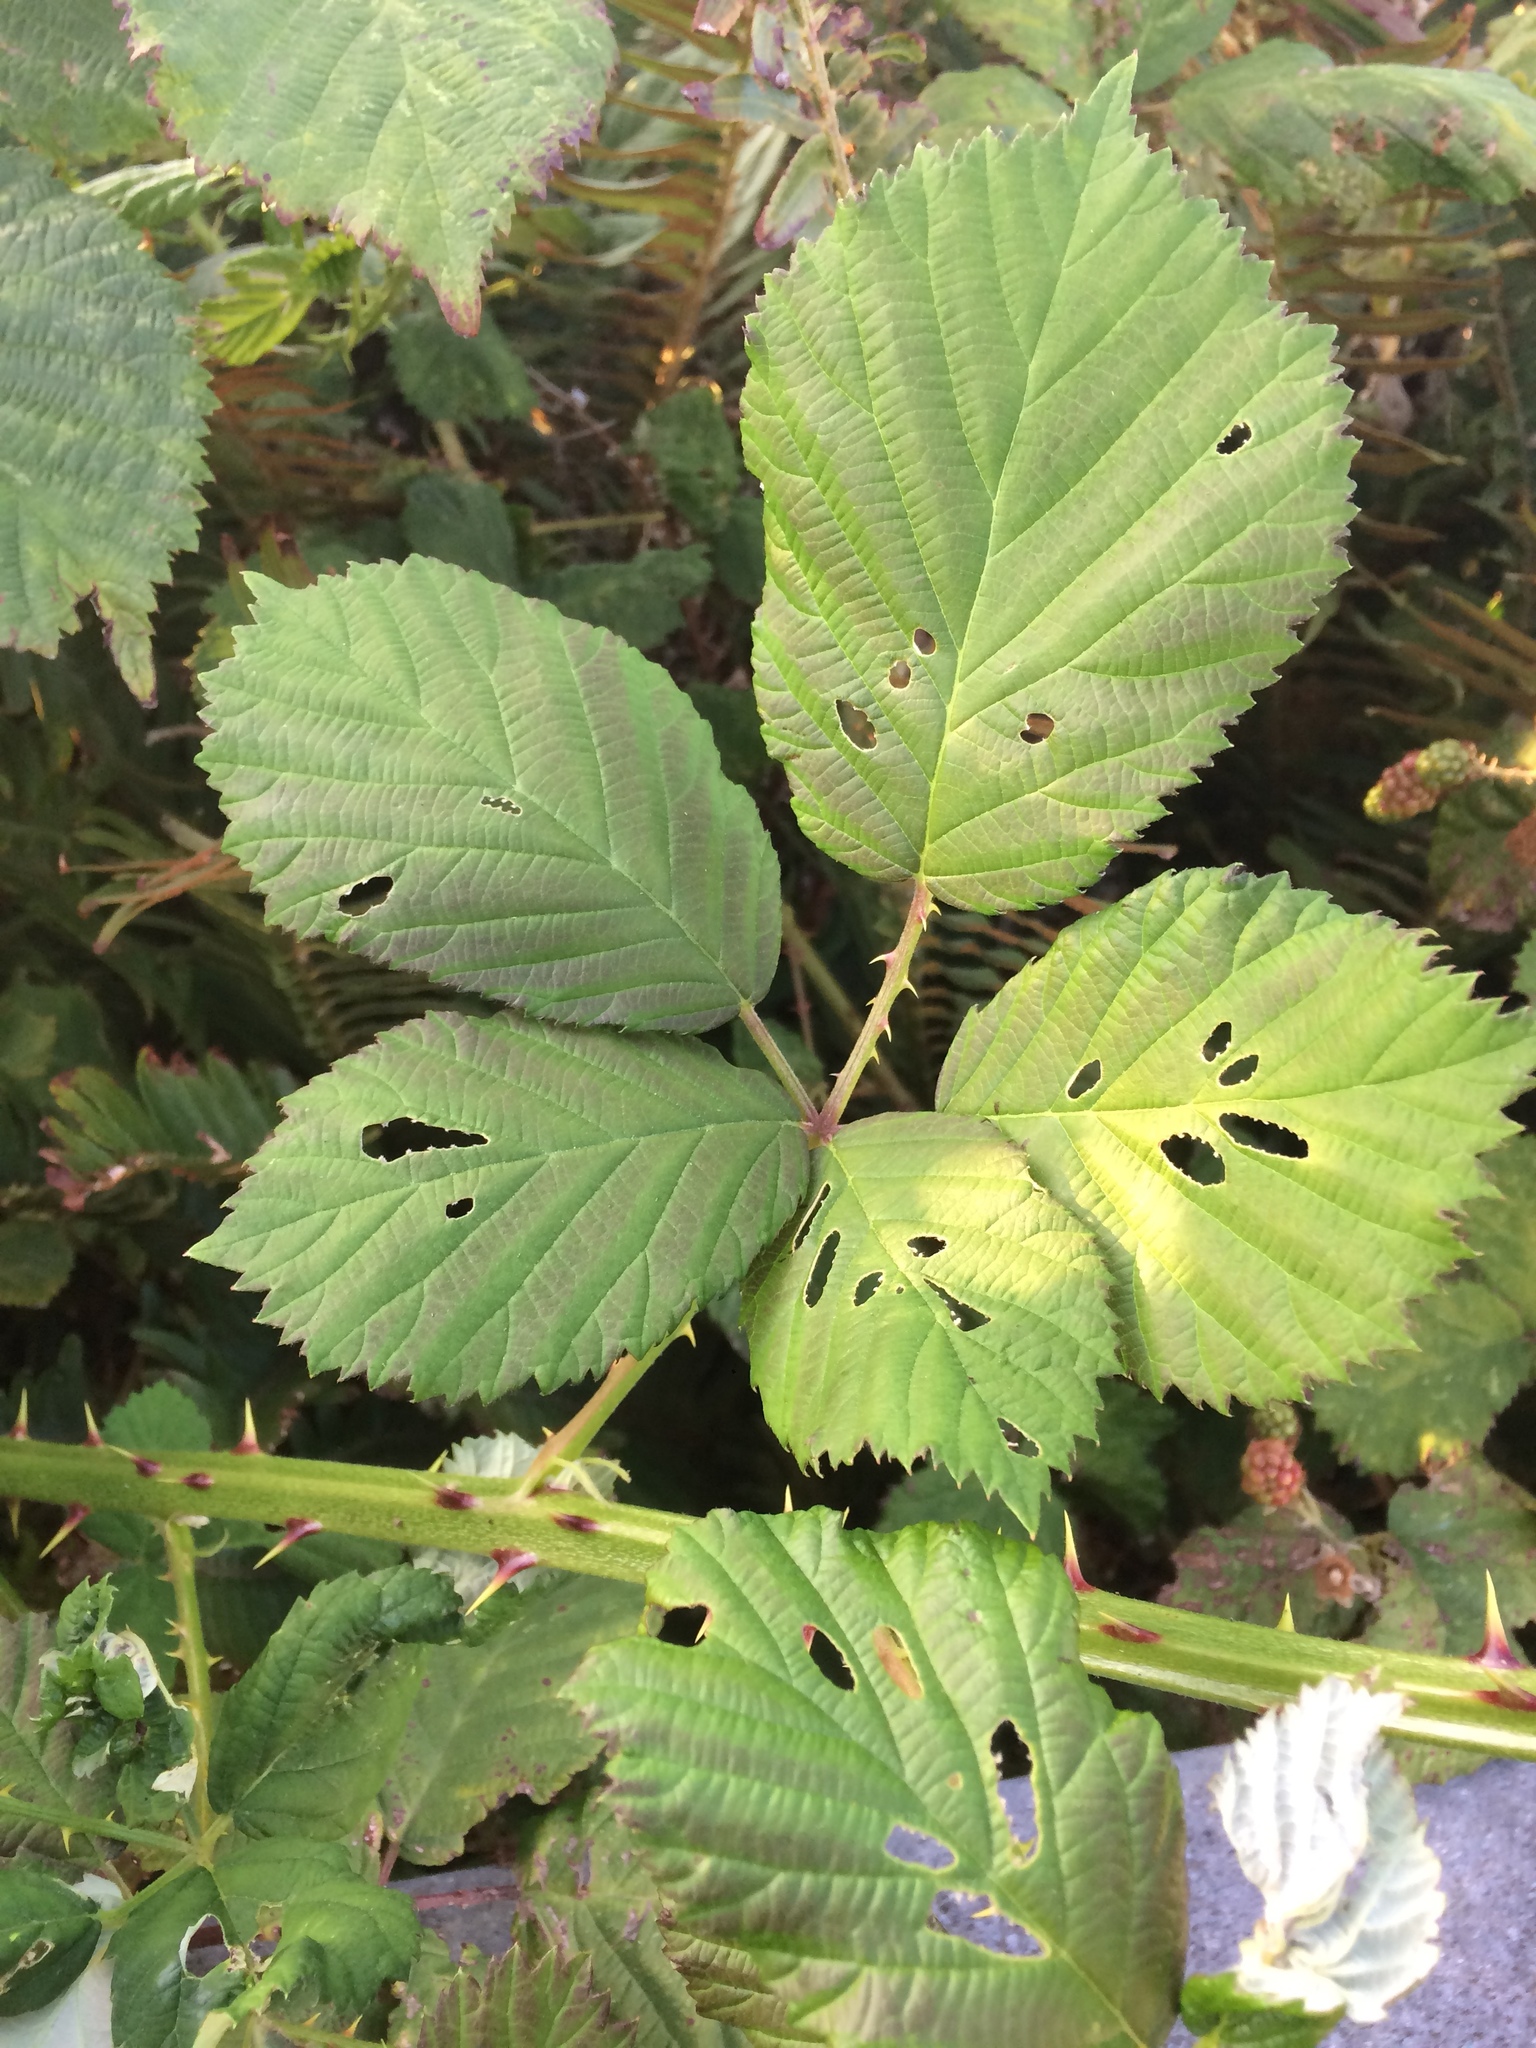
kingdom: Plantae
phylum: Tracheophyta
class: Magnoliopsida
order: Rosales
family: Rosaceae
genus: Rubus
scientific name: Rubus armeniacus
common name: Himalayan blackberry
